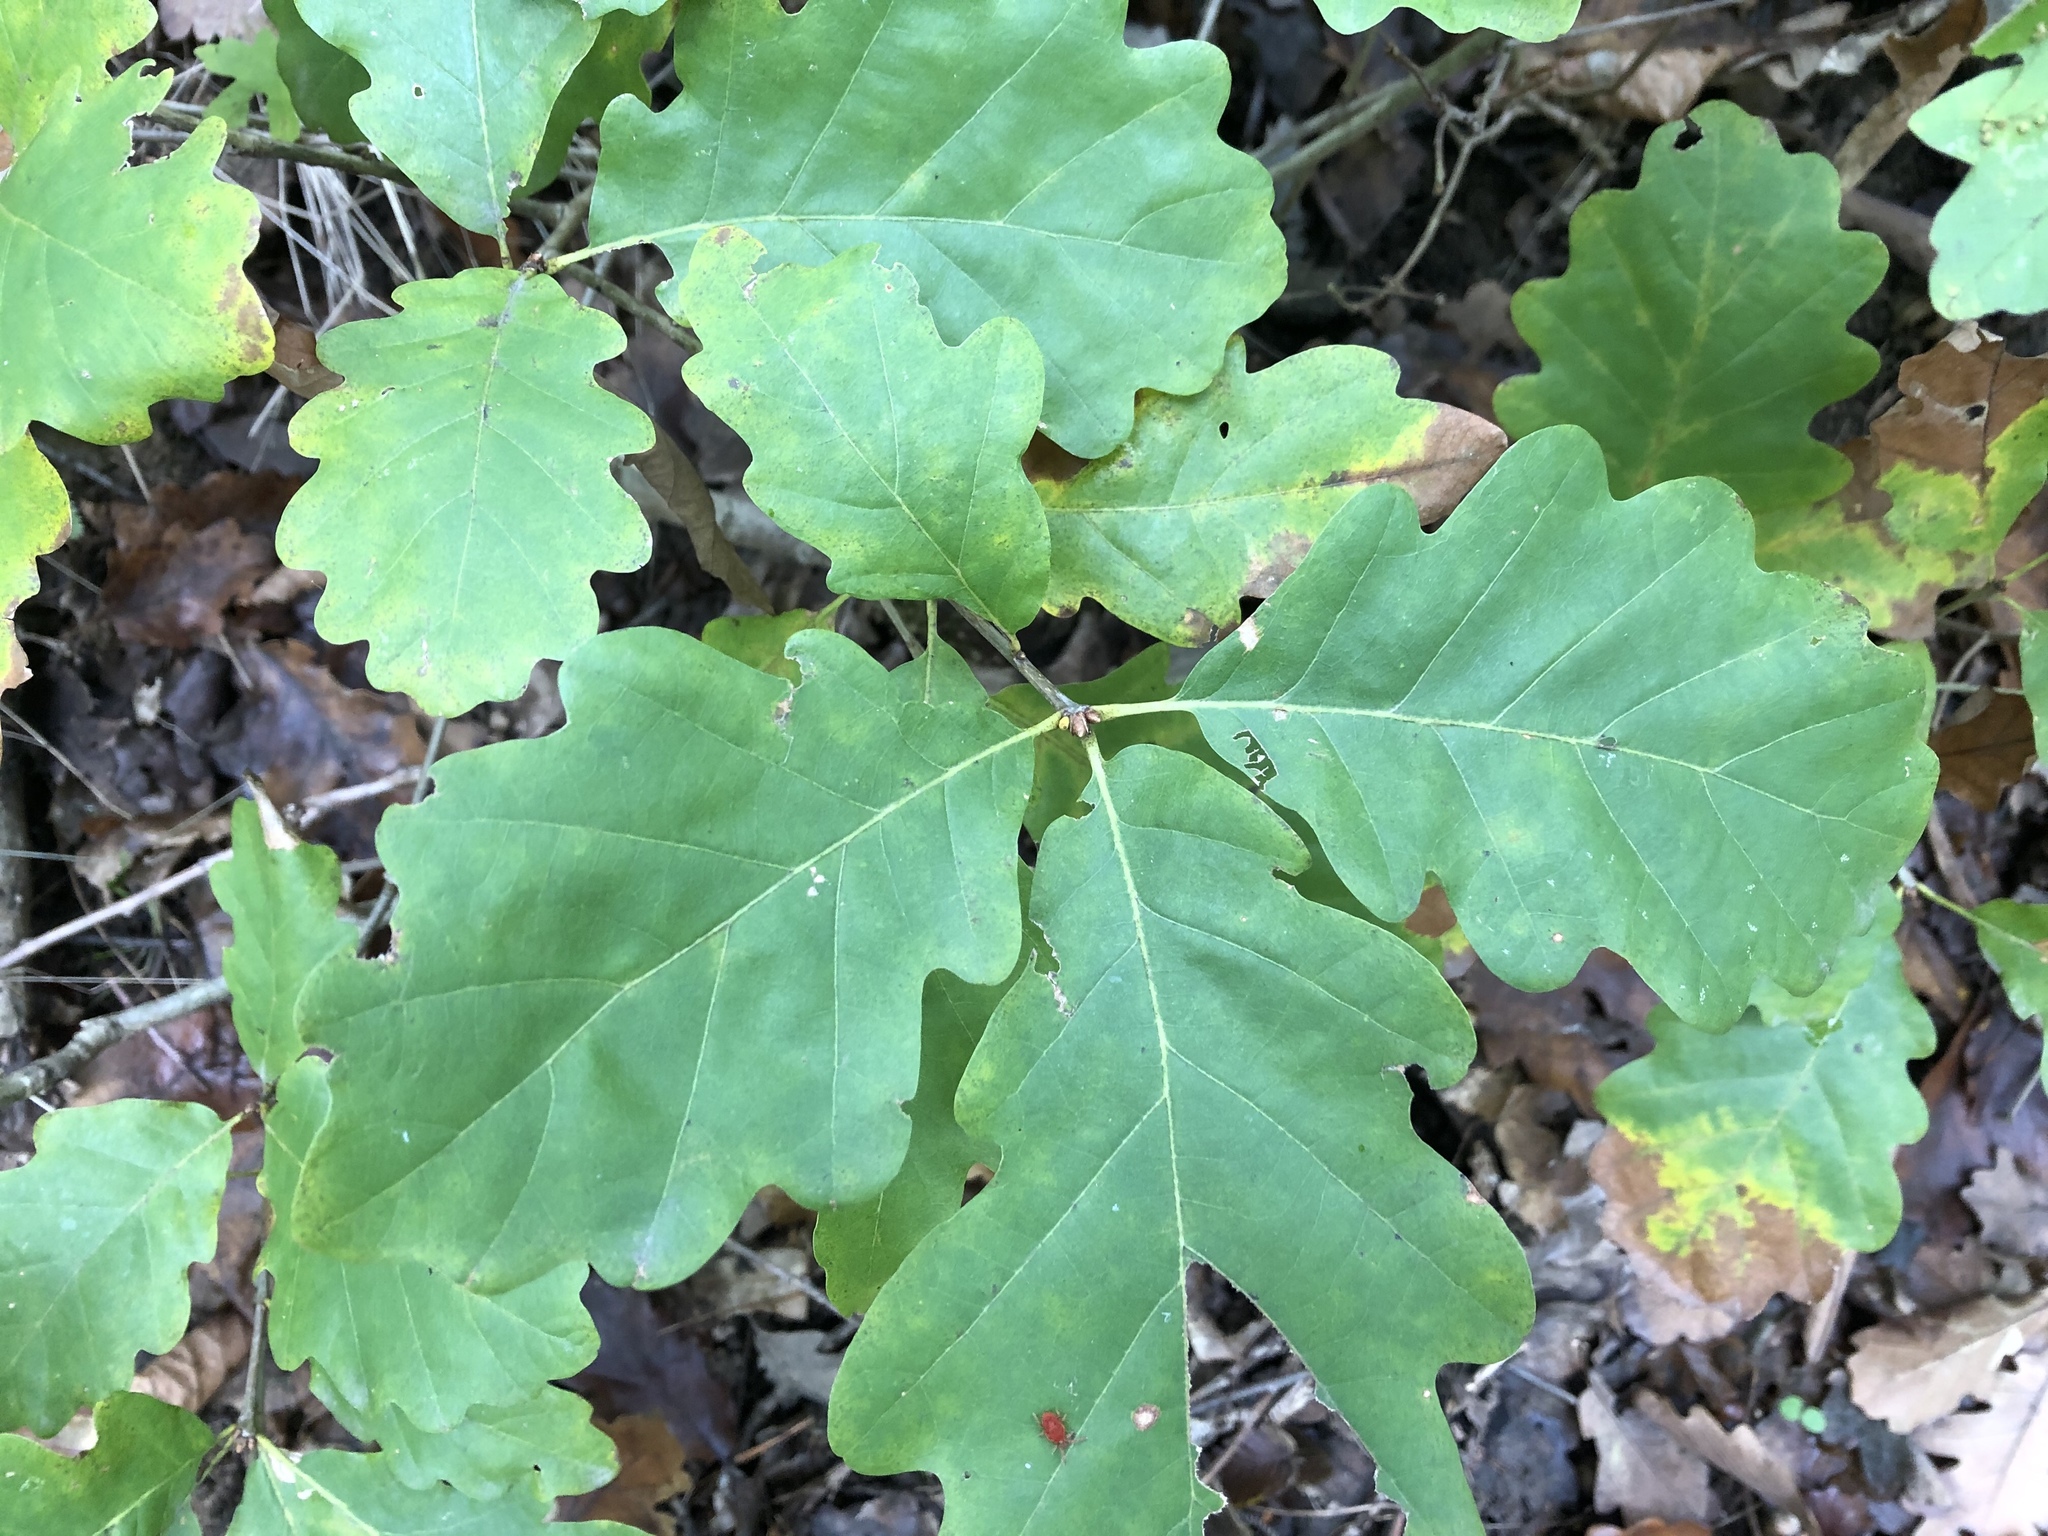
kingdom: Plantae
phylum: Tracheophyta
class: Magnoliopsida
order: Fagales
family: Fagaceae
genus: Quercus
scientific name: Quercus petraea
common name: Sessile oak
